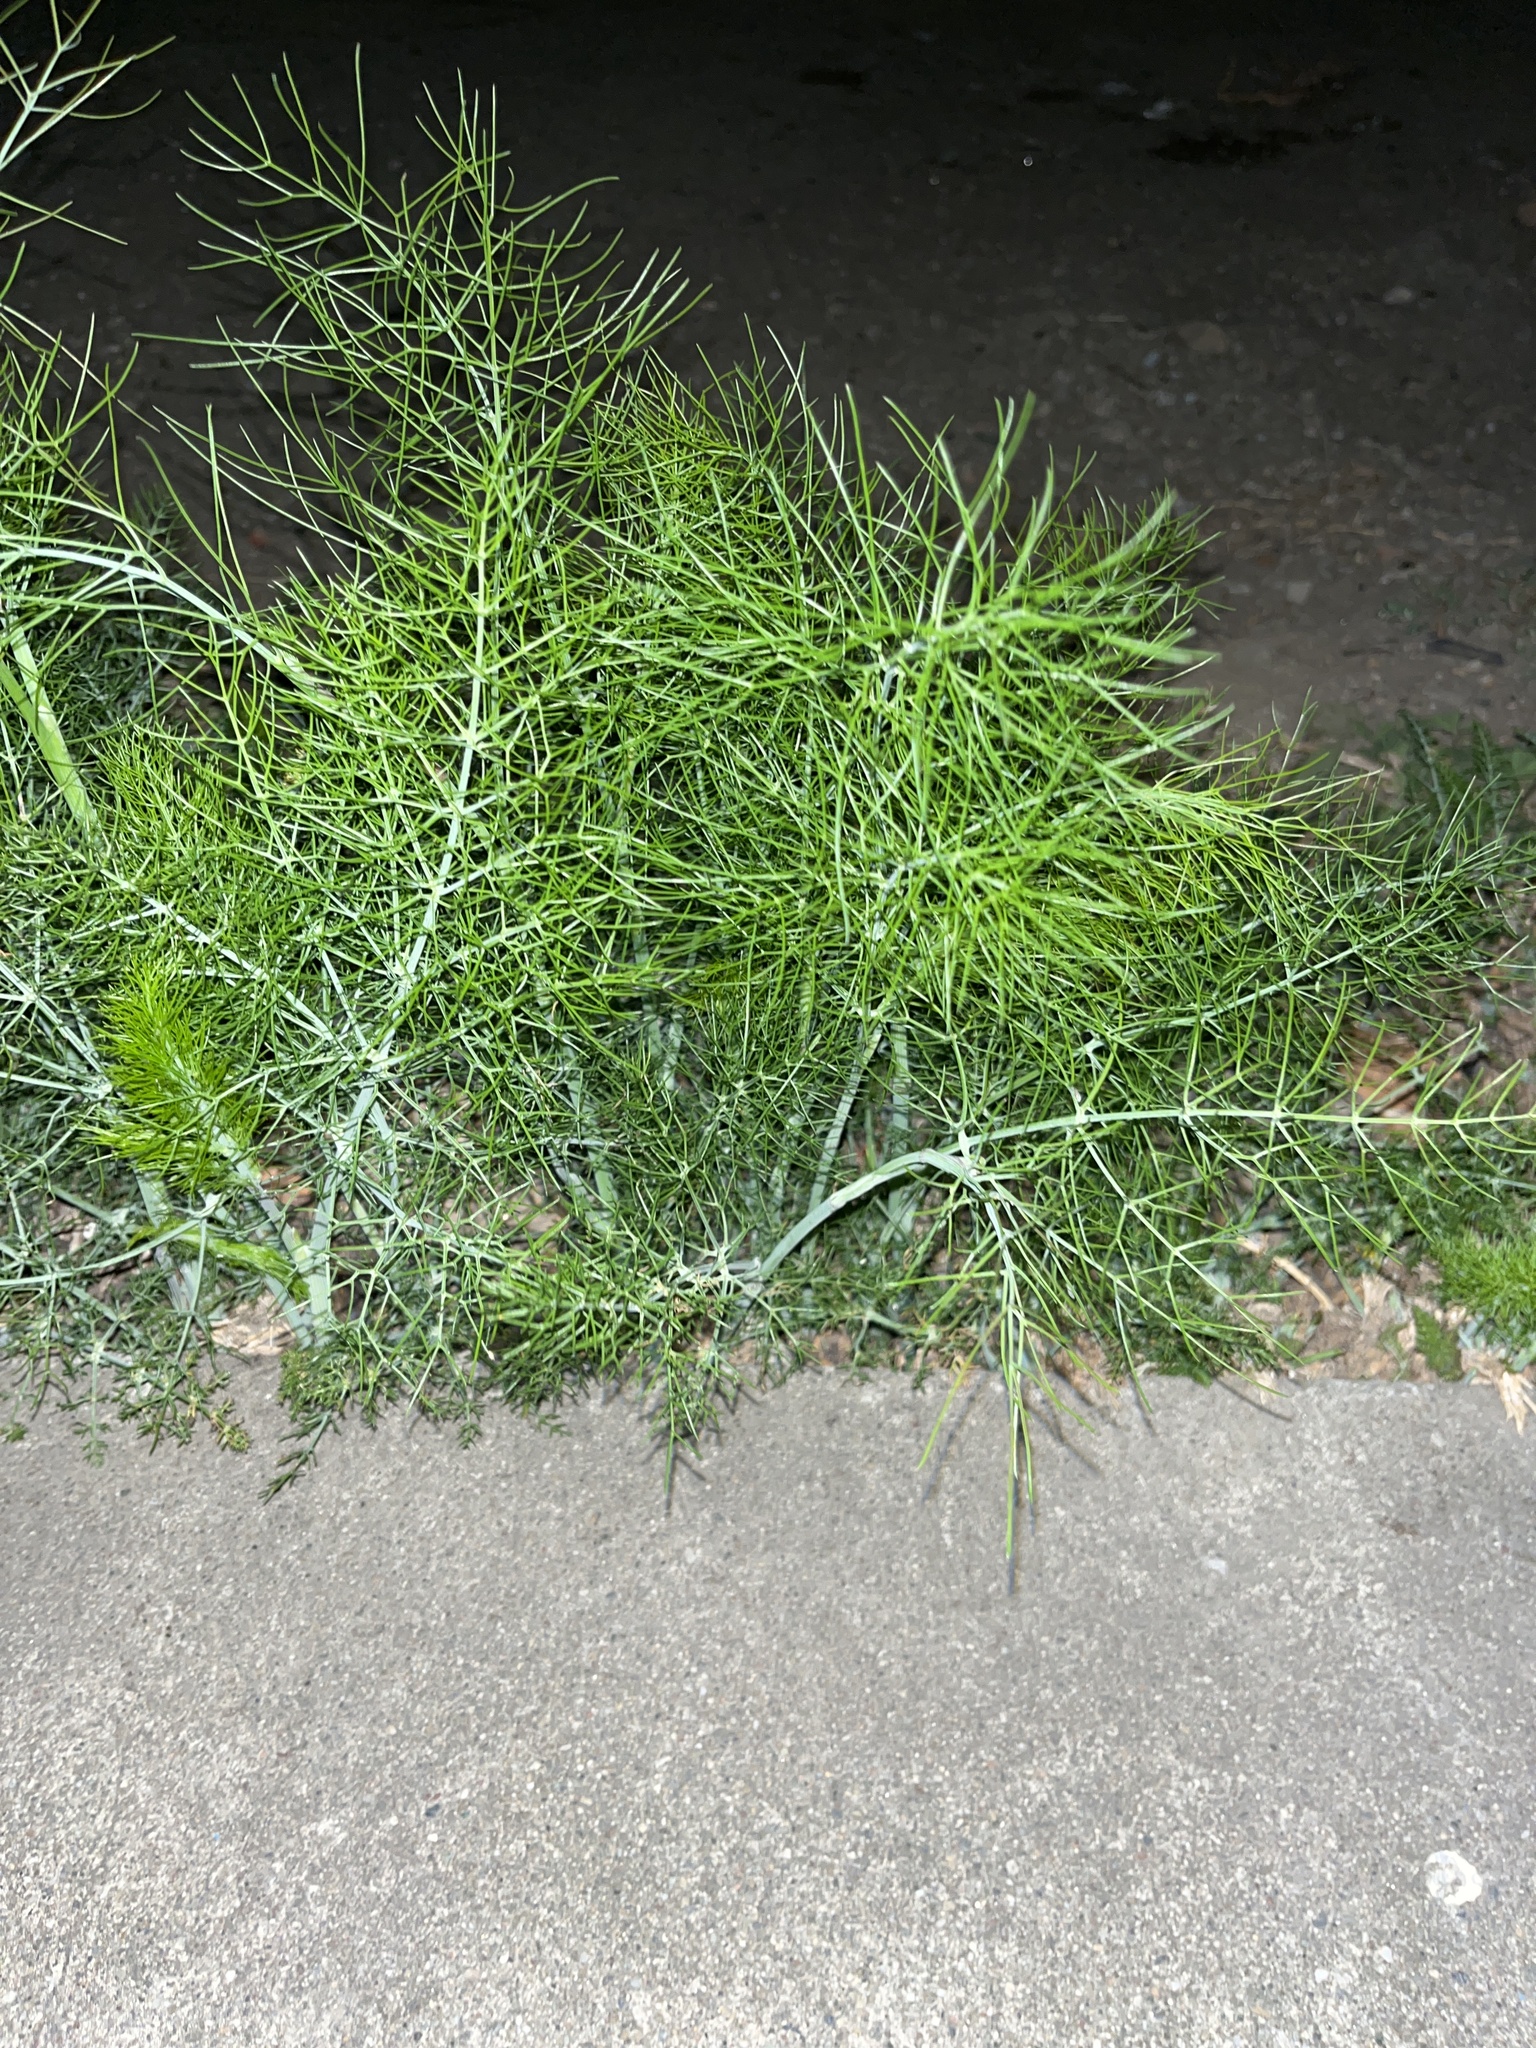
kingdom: Plantae
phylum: Tracheophyta
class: Magnoliopsida
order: Apiales
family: Apiaceae
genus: Foeniculum
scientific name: Foeniculum vulgare
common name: Fennel
